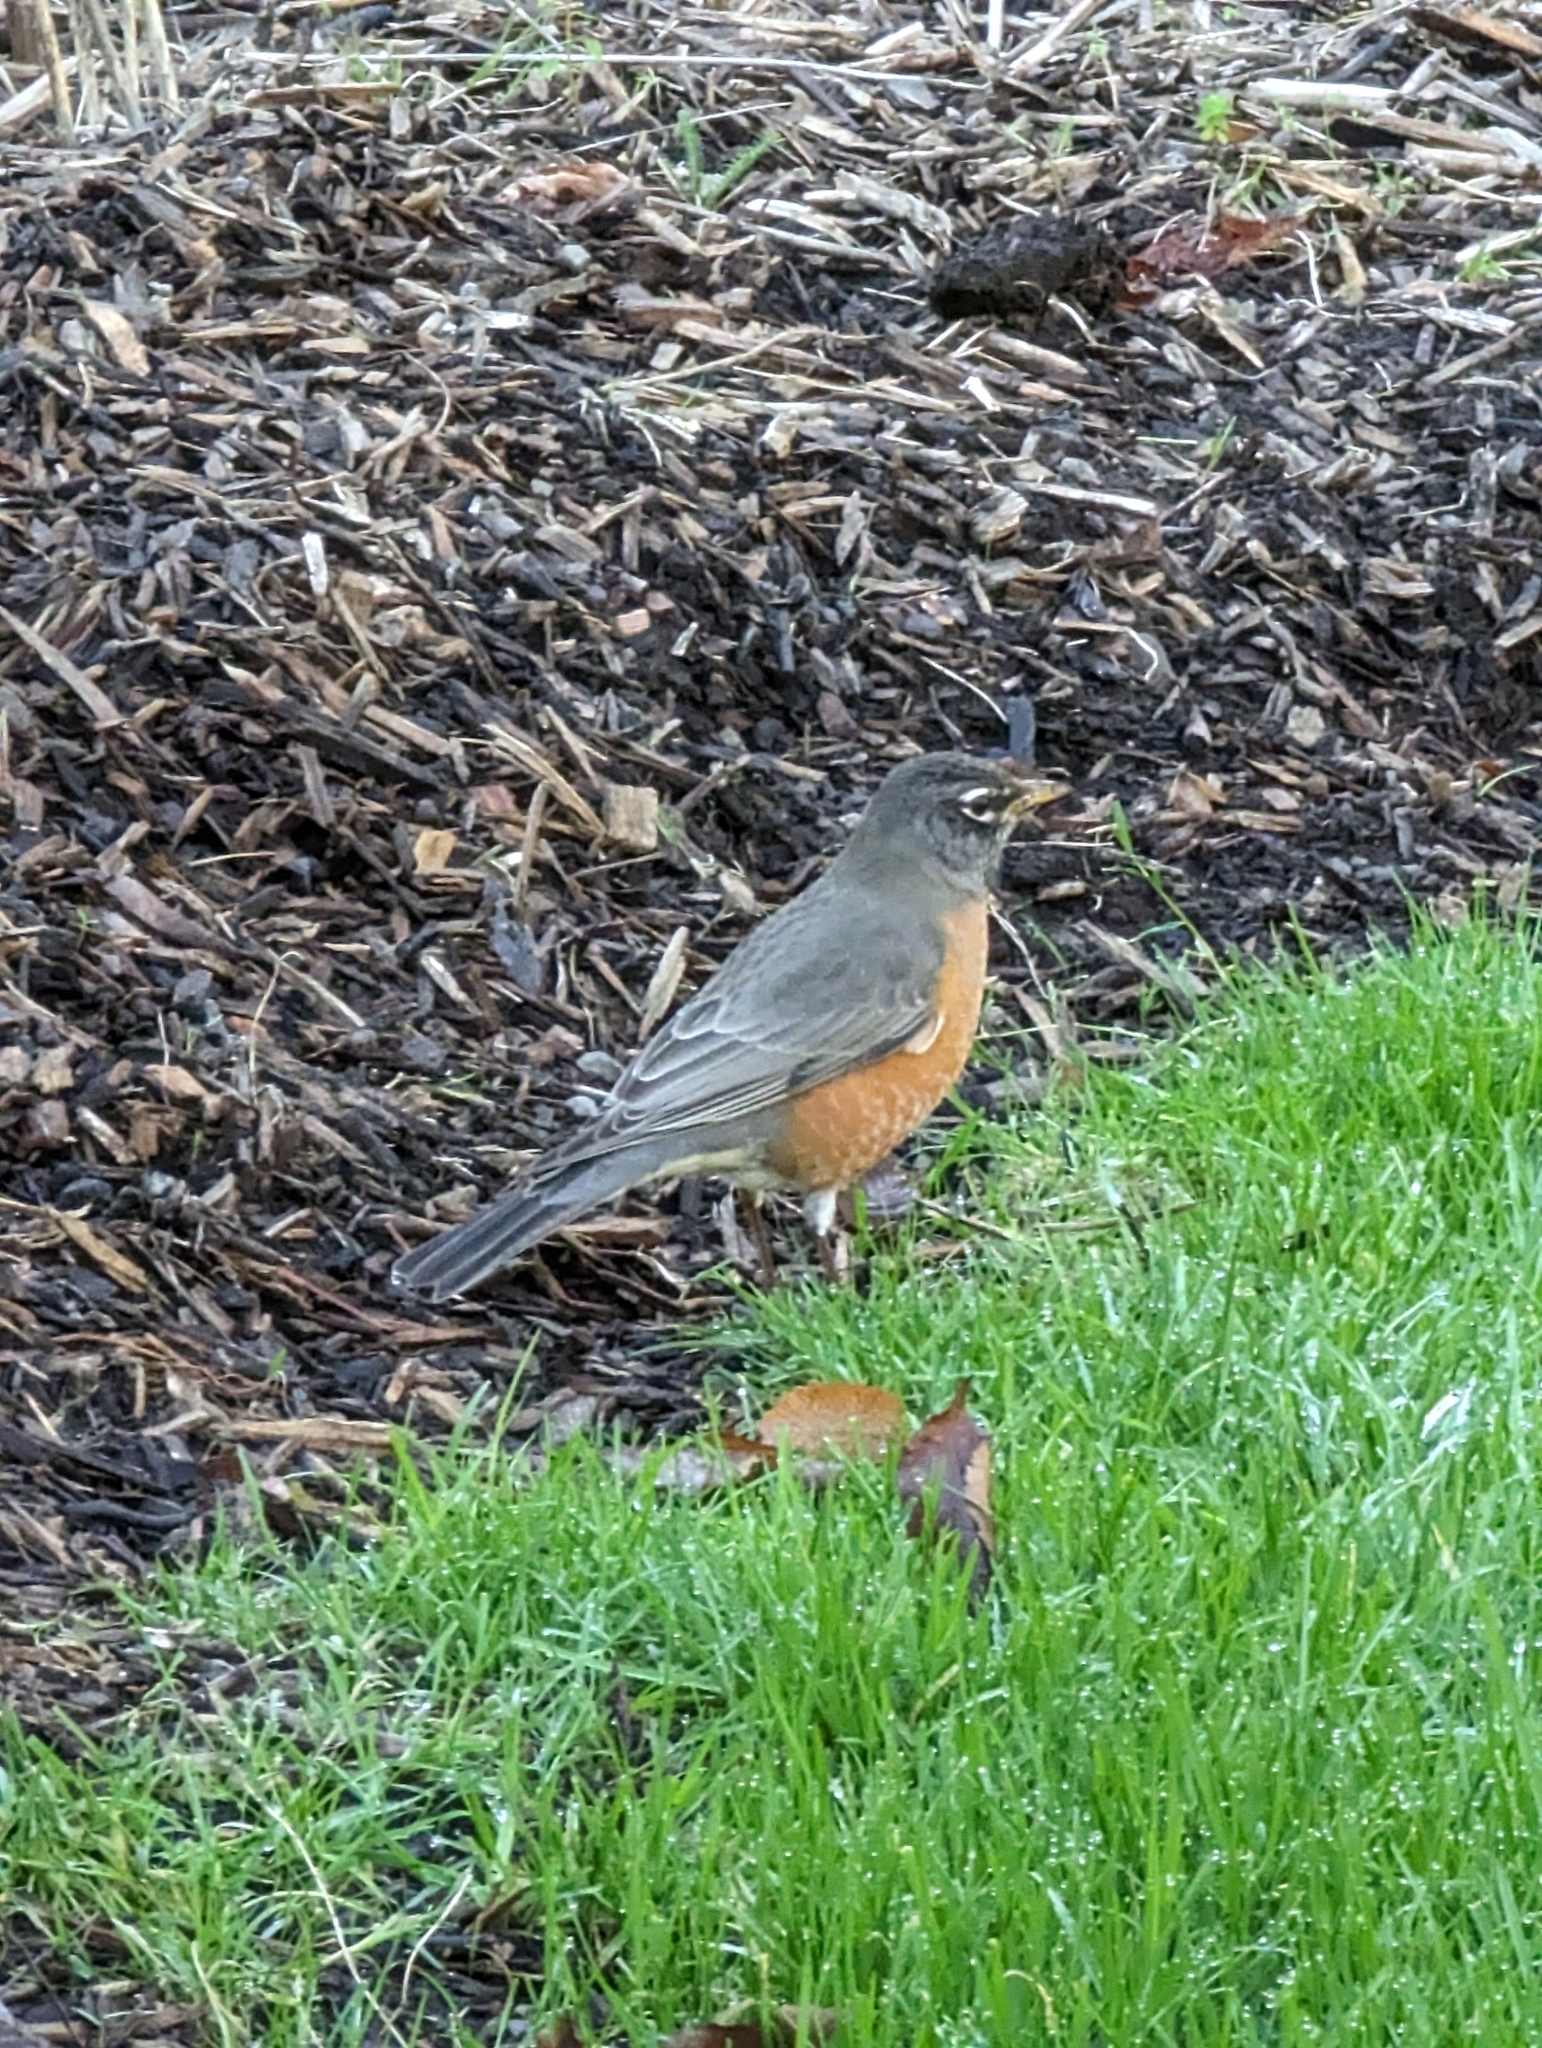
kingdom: Animalia
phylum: Chordata
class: Aves
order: Passeriformes
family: Turdidae
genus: Turdus
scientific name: Turdus migratorius
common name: American robin
